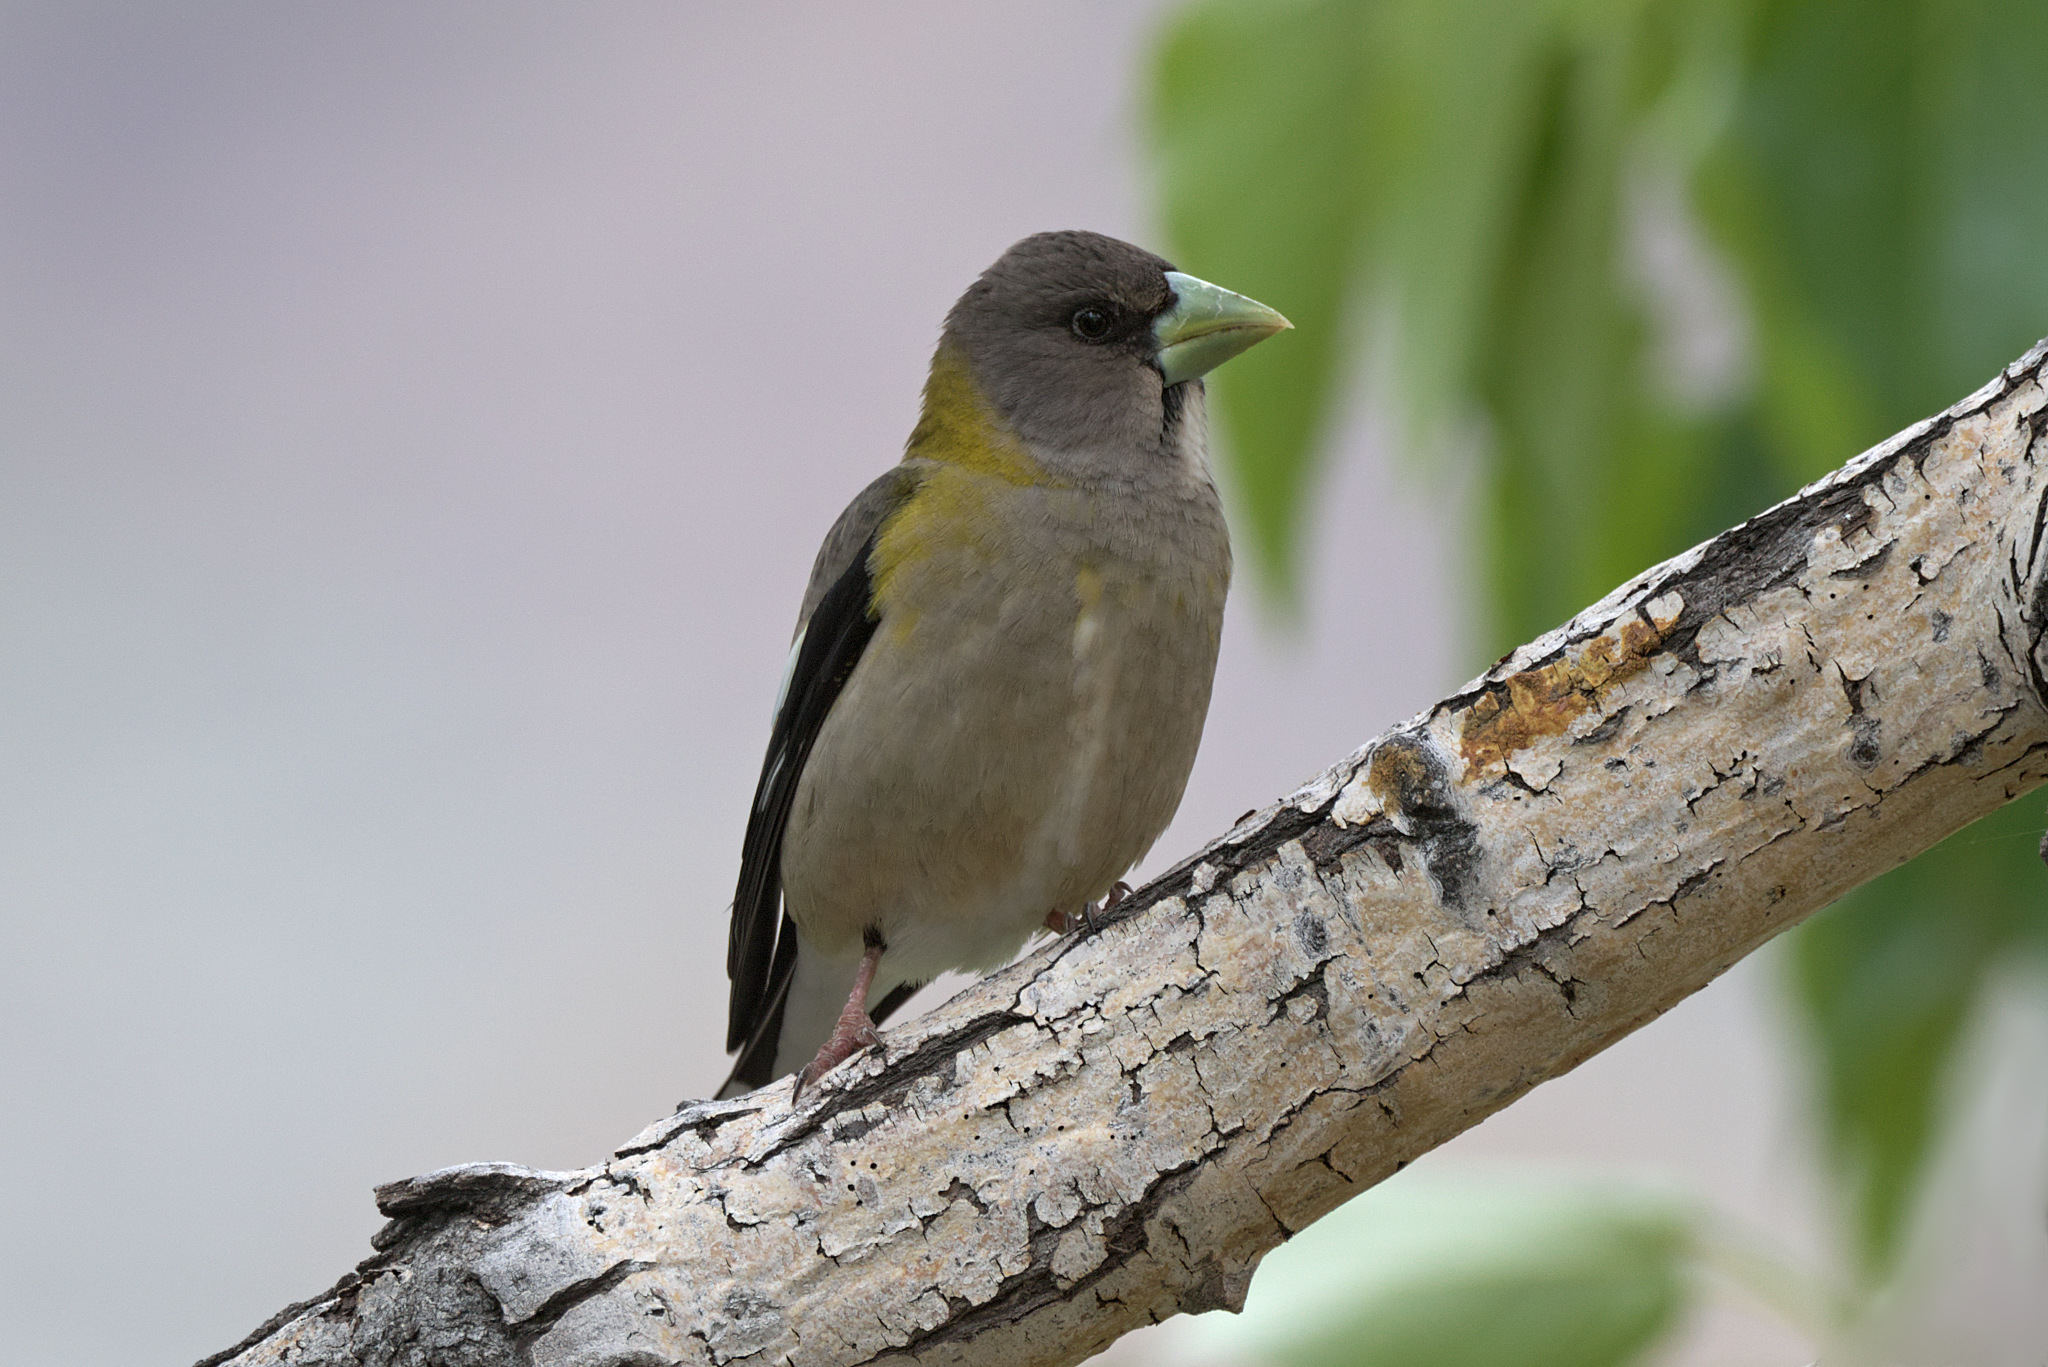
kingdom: Animalia
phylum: Chordata
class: Aves
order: Passeriformes
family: Fringillidae
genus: Hesperiphona
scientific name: Hesperiphona vespertina
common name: Evening grosbeak
